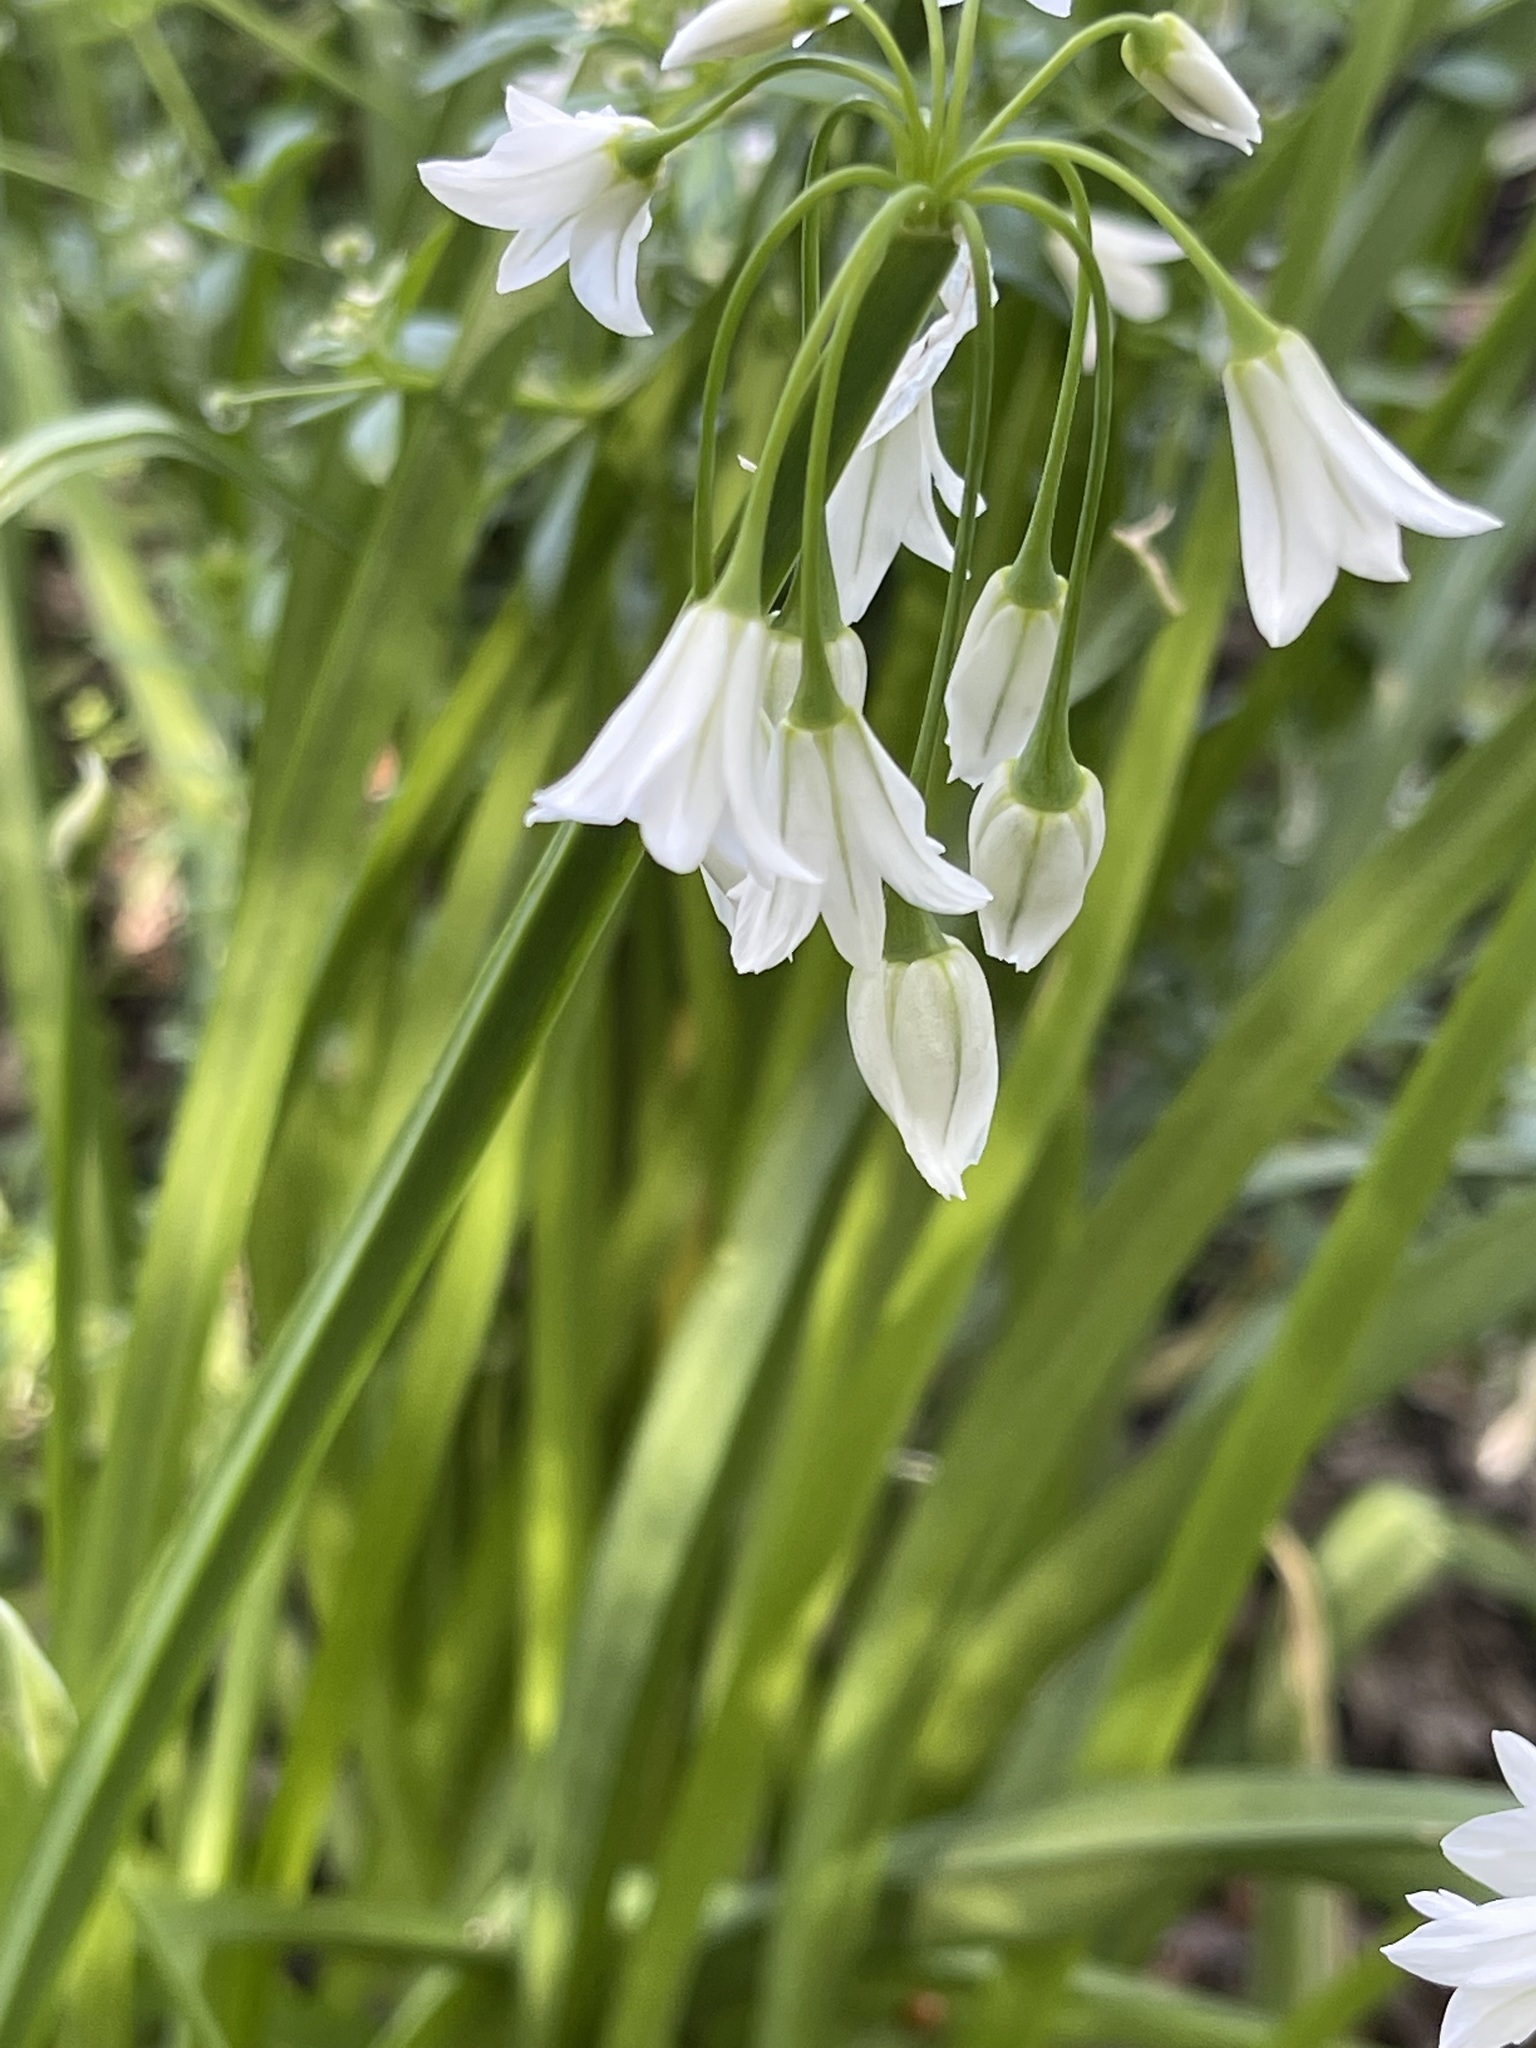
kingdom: Plantae
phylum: Tracheophyta
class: Liliopsida
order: Asparagales
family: Amaryllidaceae
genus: Allium
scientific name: Allium triquetrum
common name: Three-cornered garlic
